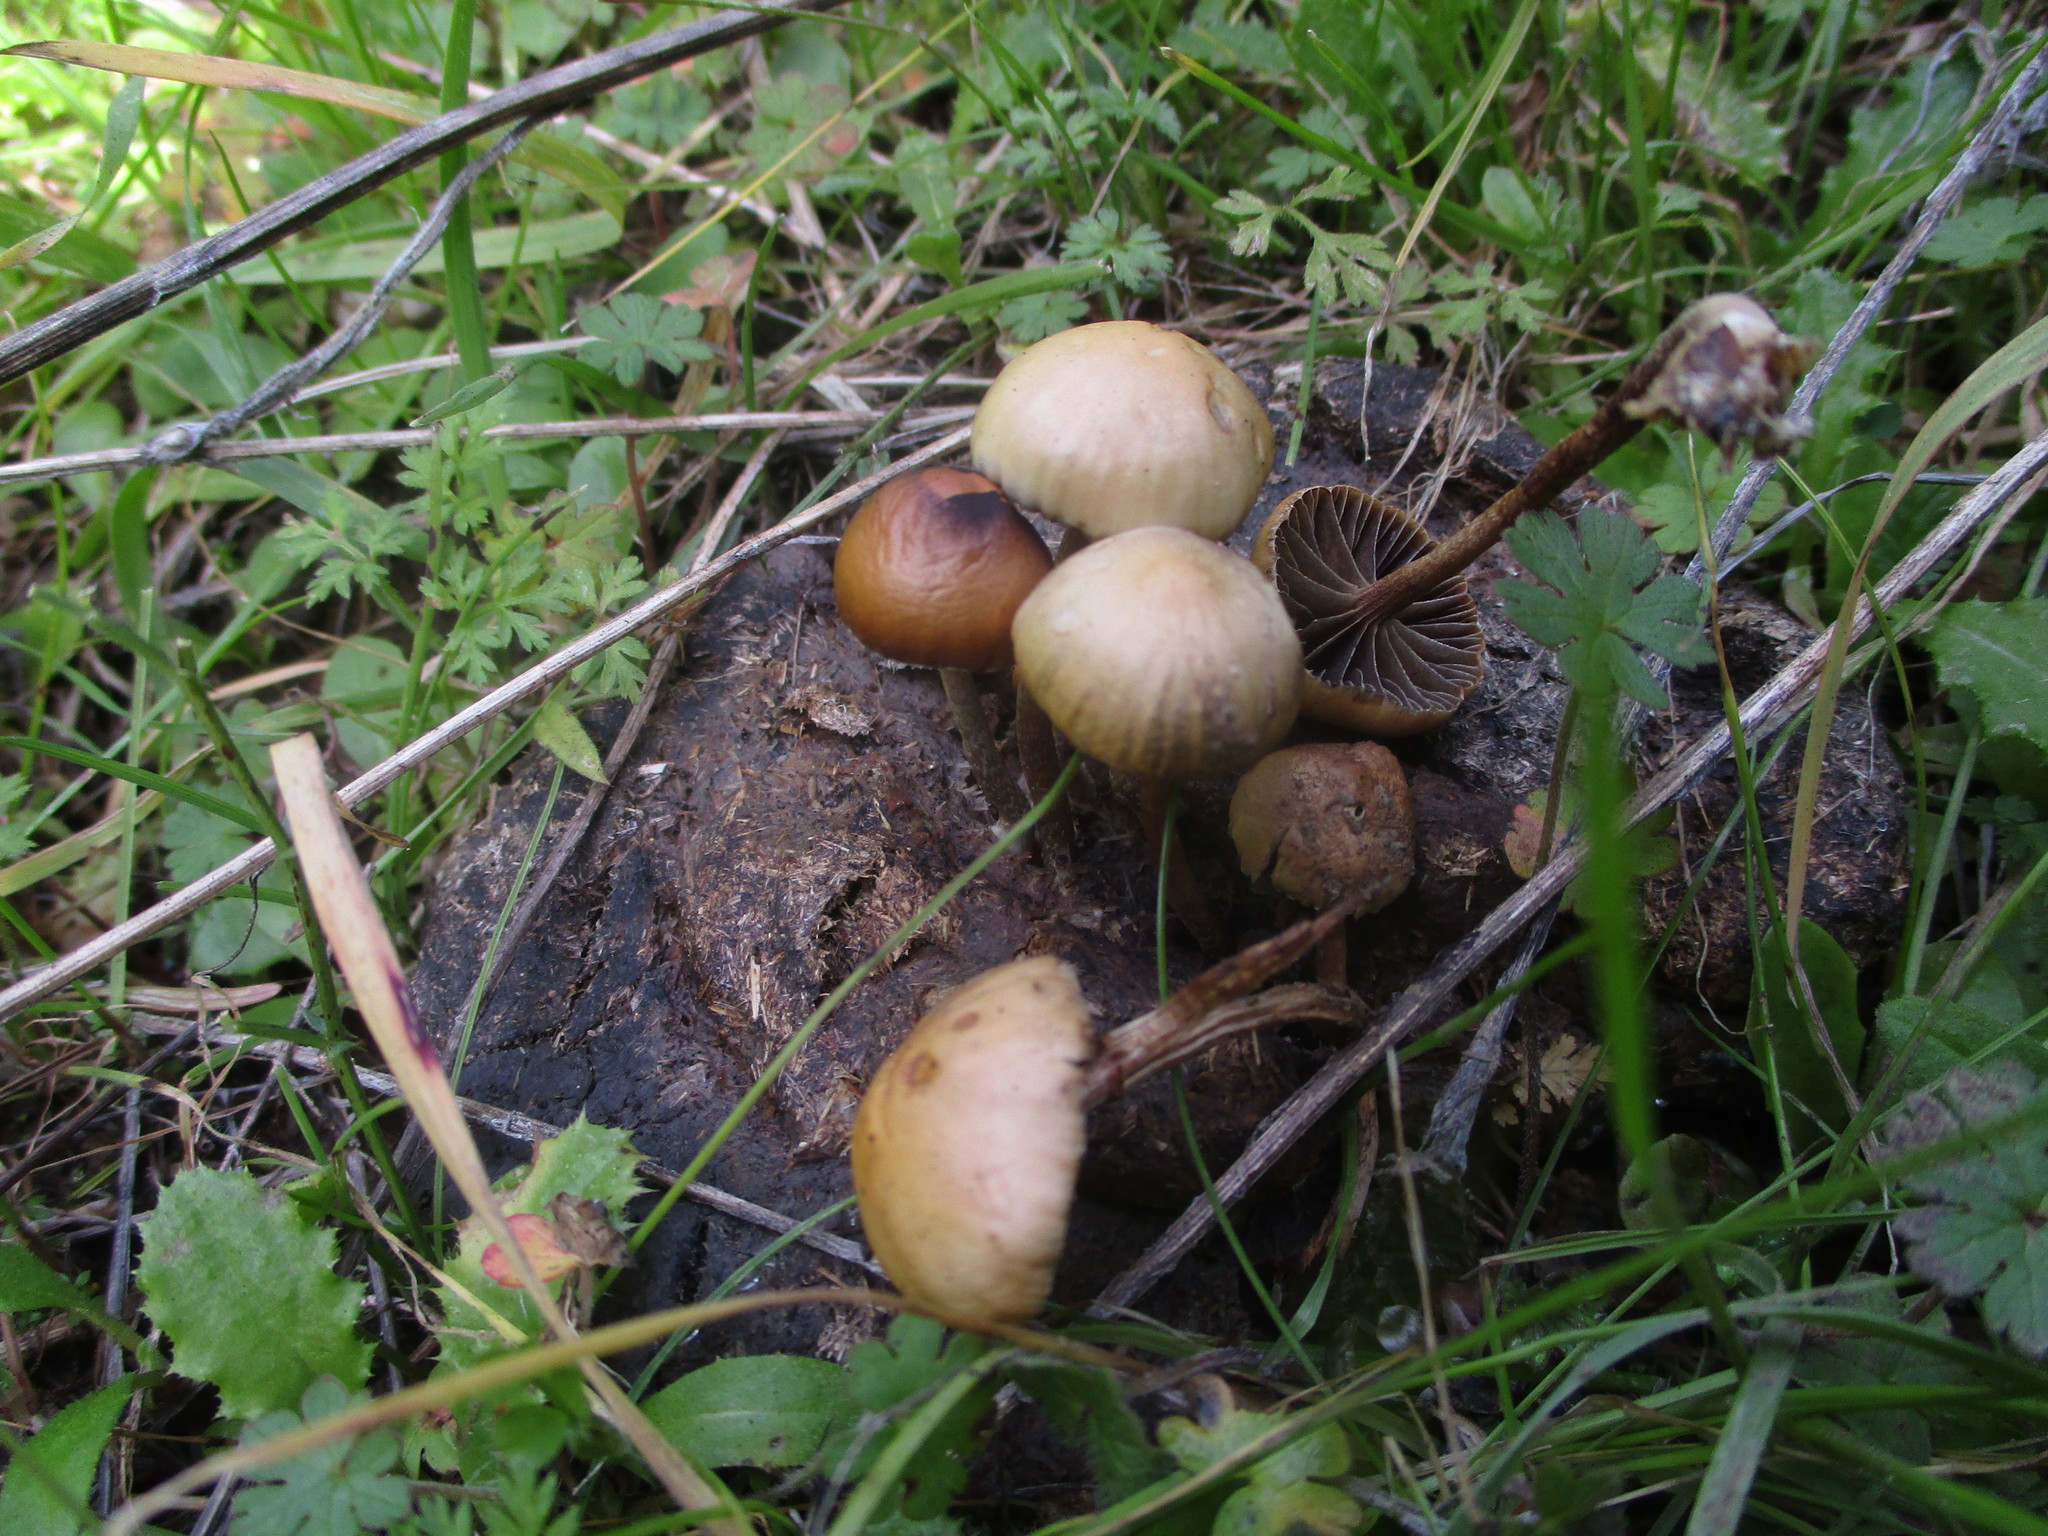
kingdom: Fungi
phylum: Basidiomycota
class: Agaricomycetes
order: Agaricales
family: Strophariaceae
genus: Deconica
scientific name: Deconica coprophila
